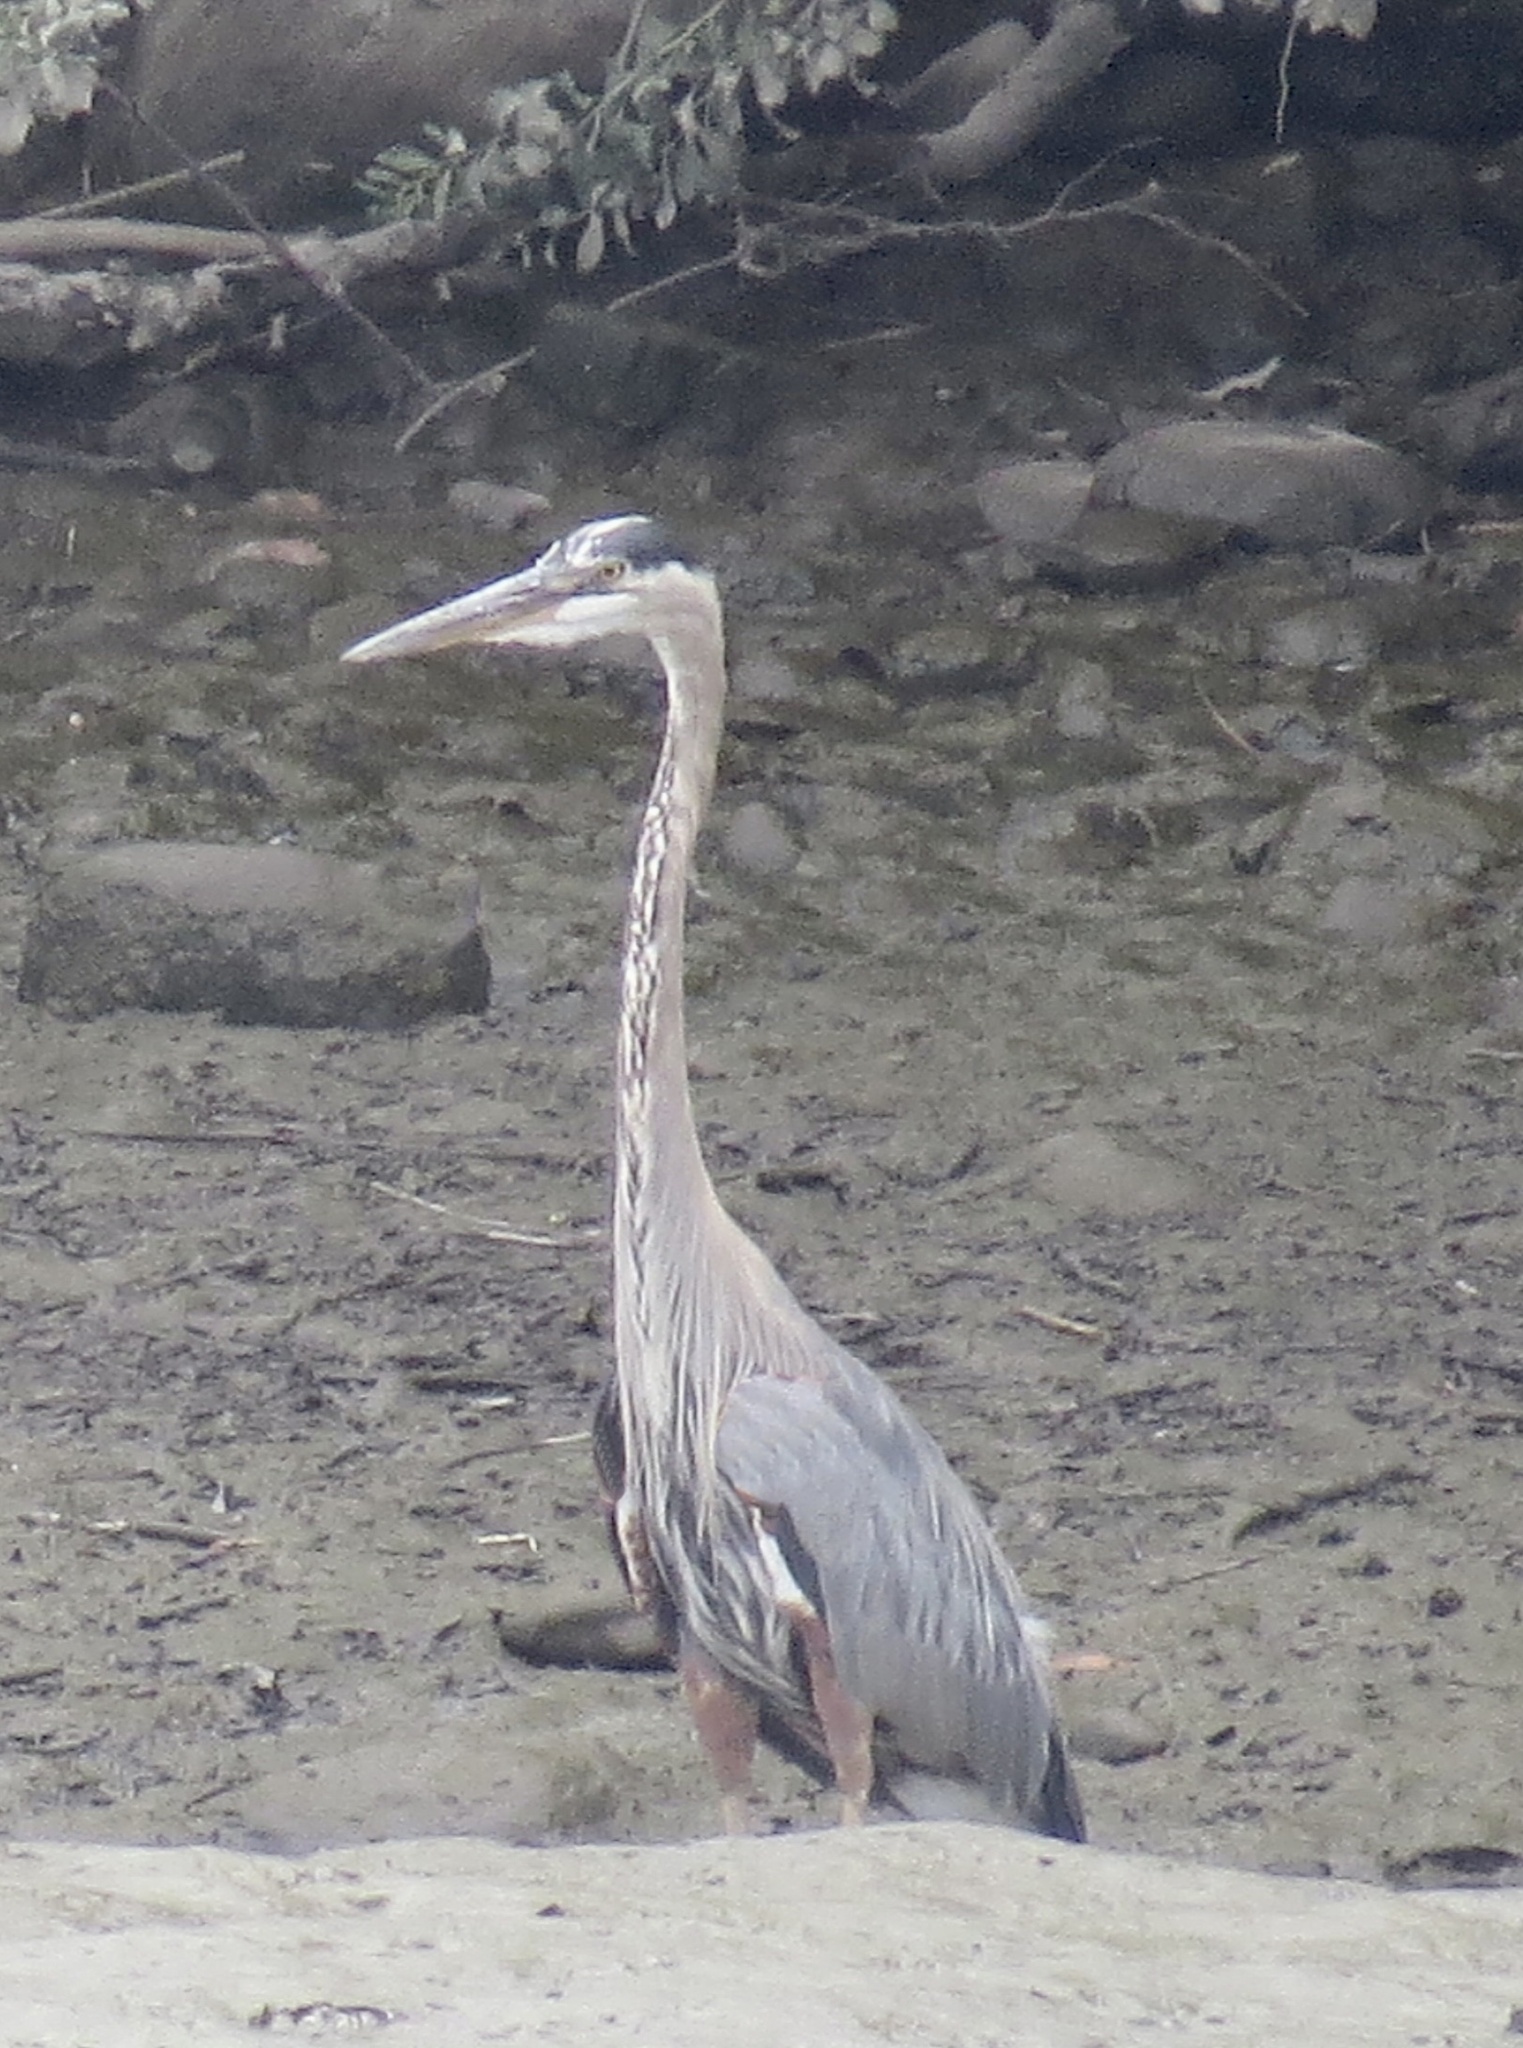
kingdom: Animalia
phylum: Chordata
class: Aves
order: Pelecaniformes
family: Ardeidae
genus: Ardea
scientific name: Ardea herodias
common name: Great blue heron
